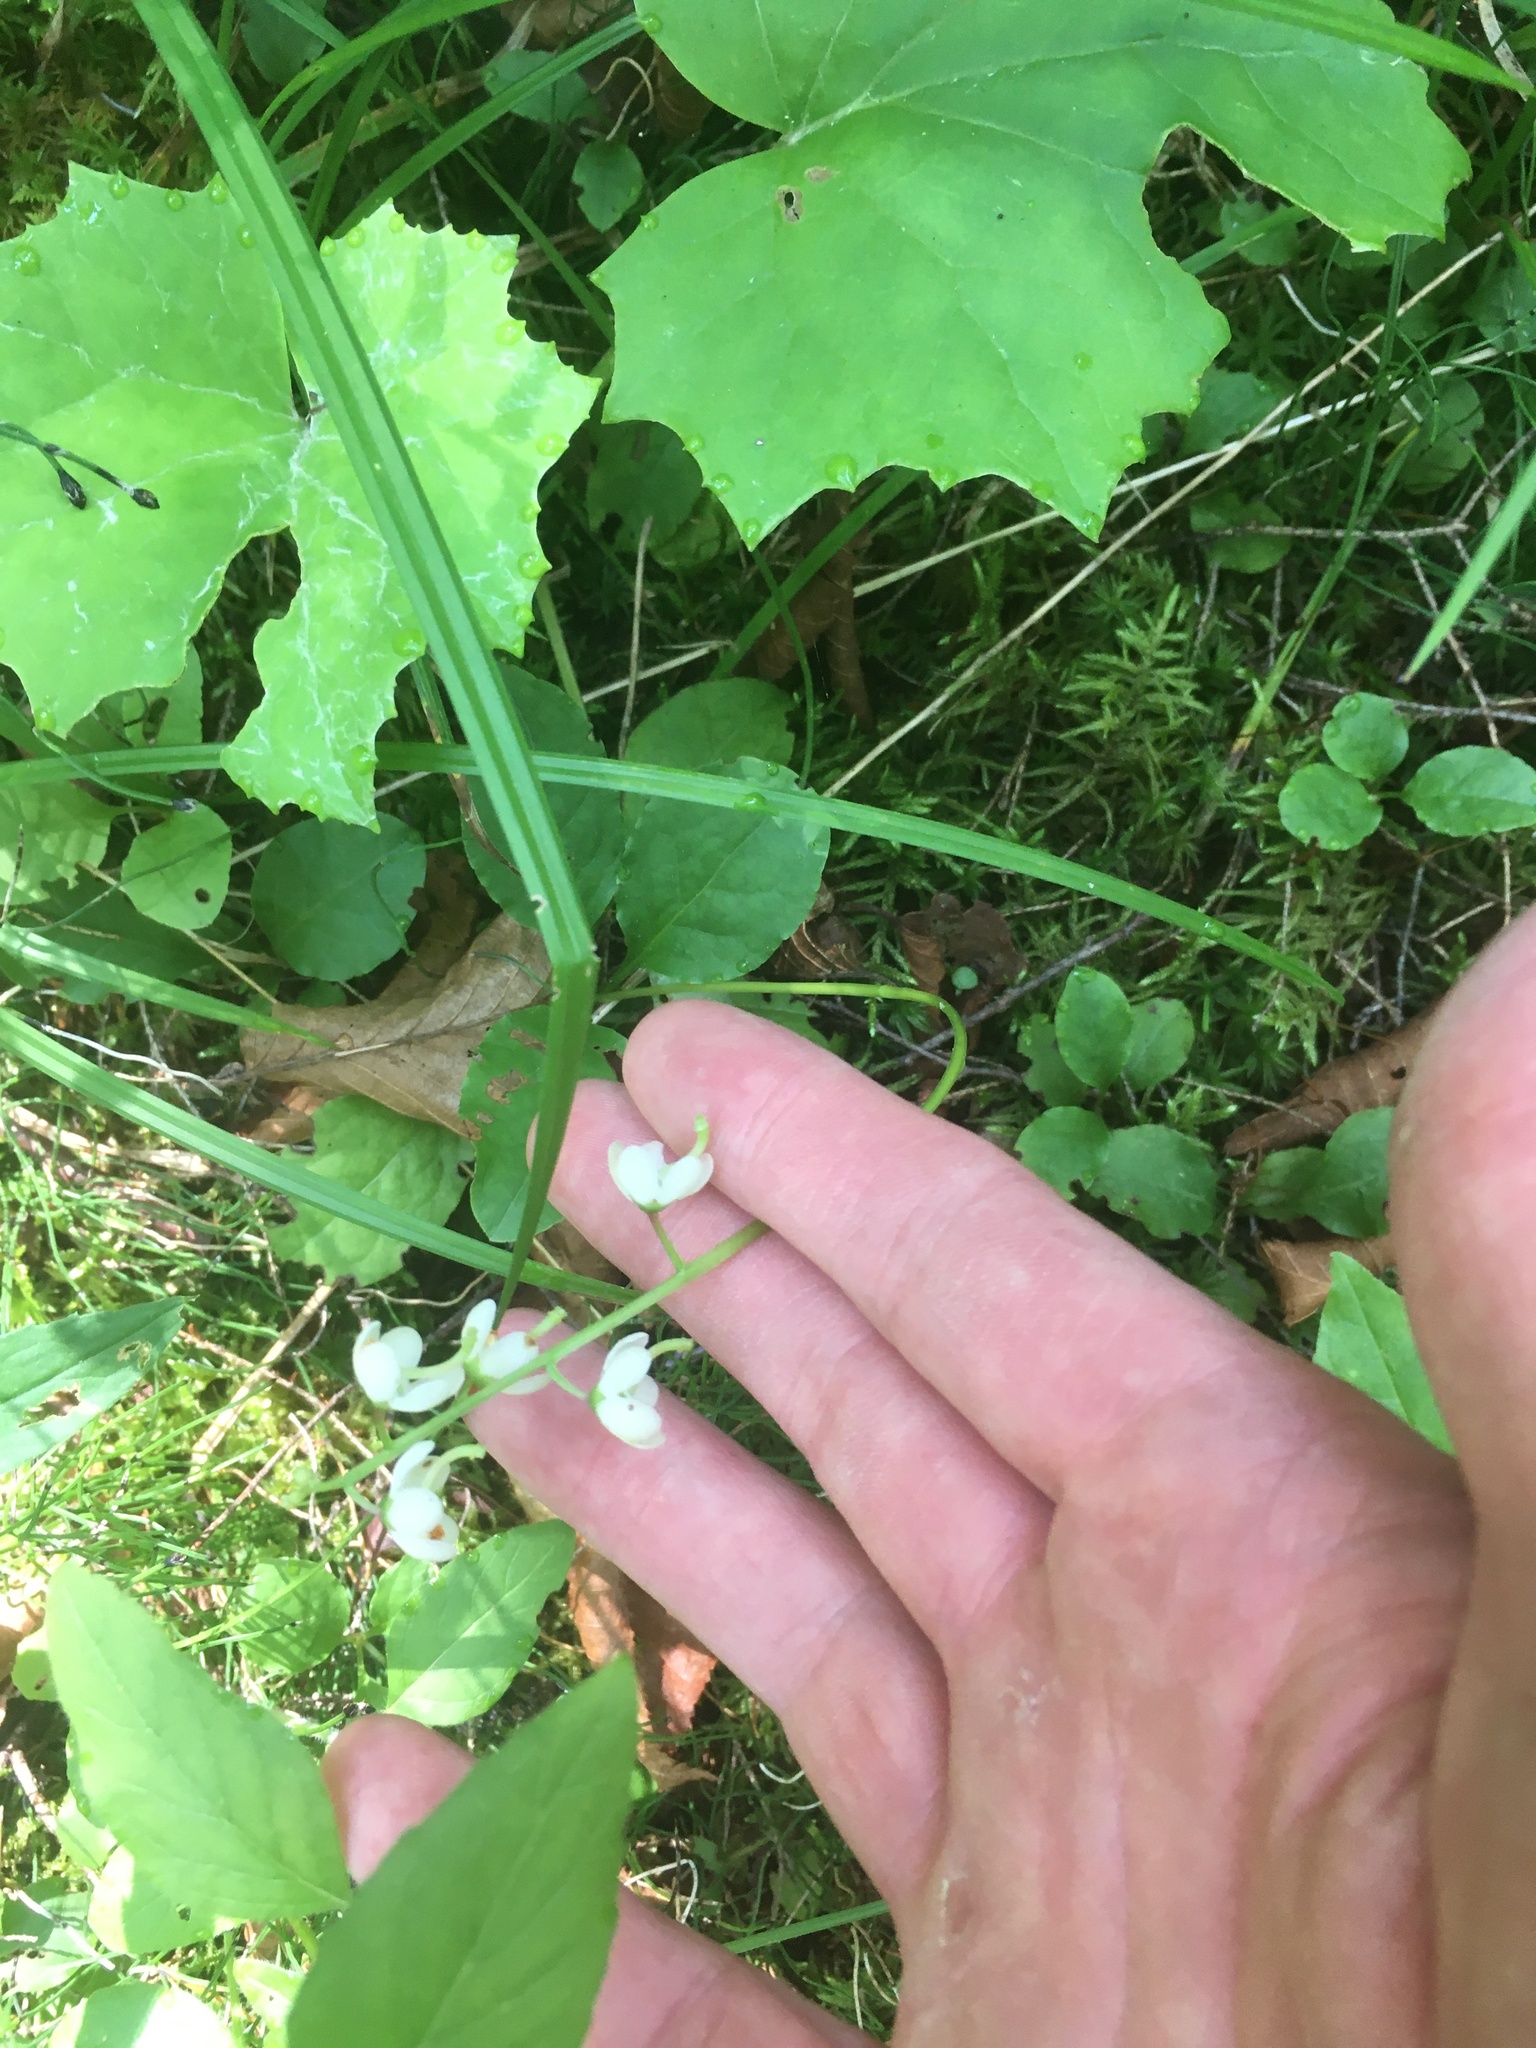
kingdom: Plantae
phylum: Tracheophyta
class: Magnoliopsida
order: Ericales
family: Ericaceae
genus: Pyrola
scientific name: Pyrola elliptica
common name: Shinleaf
